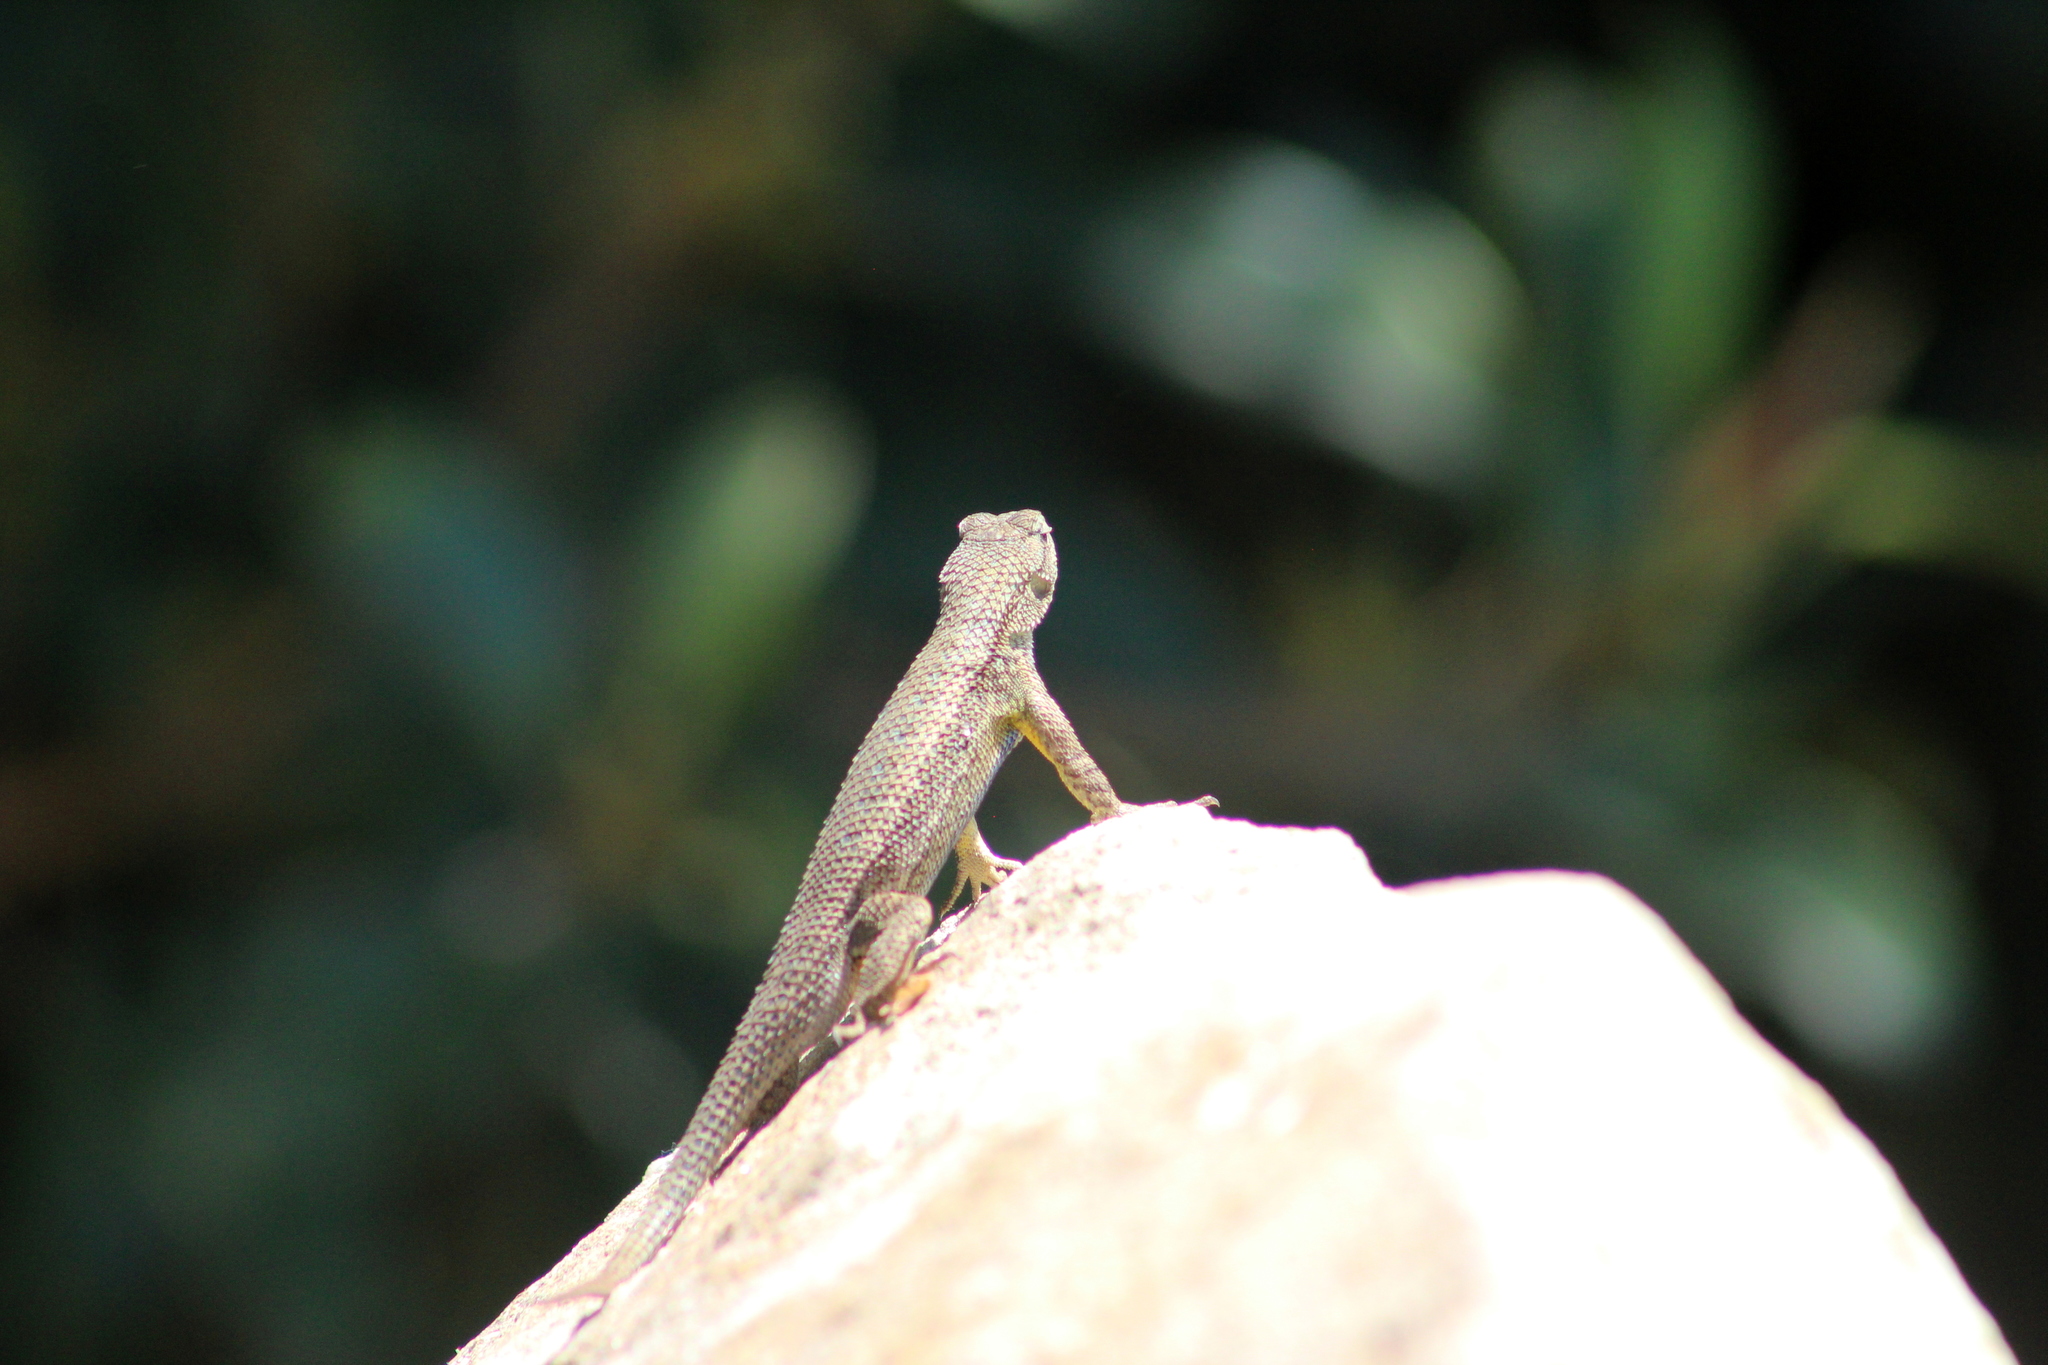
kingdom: Animalia
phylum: Chordata
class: Squamata
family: Phrynosomatidae
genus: Sceloporus
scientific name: Sceloporus occidentalis
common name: Western fence lizard
